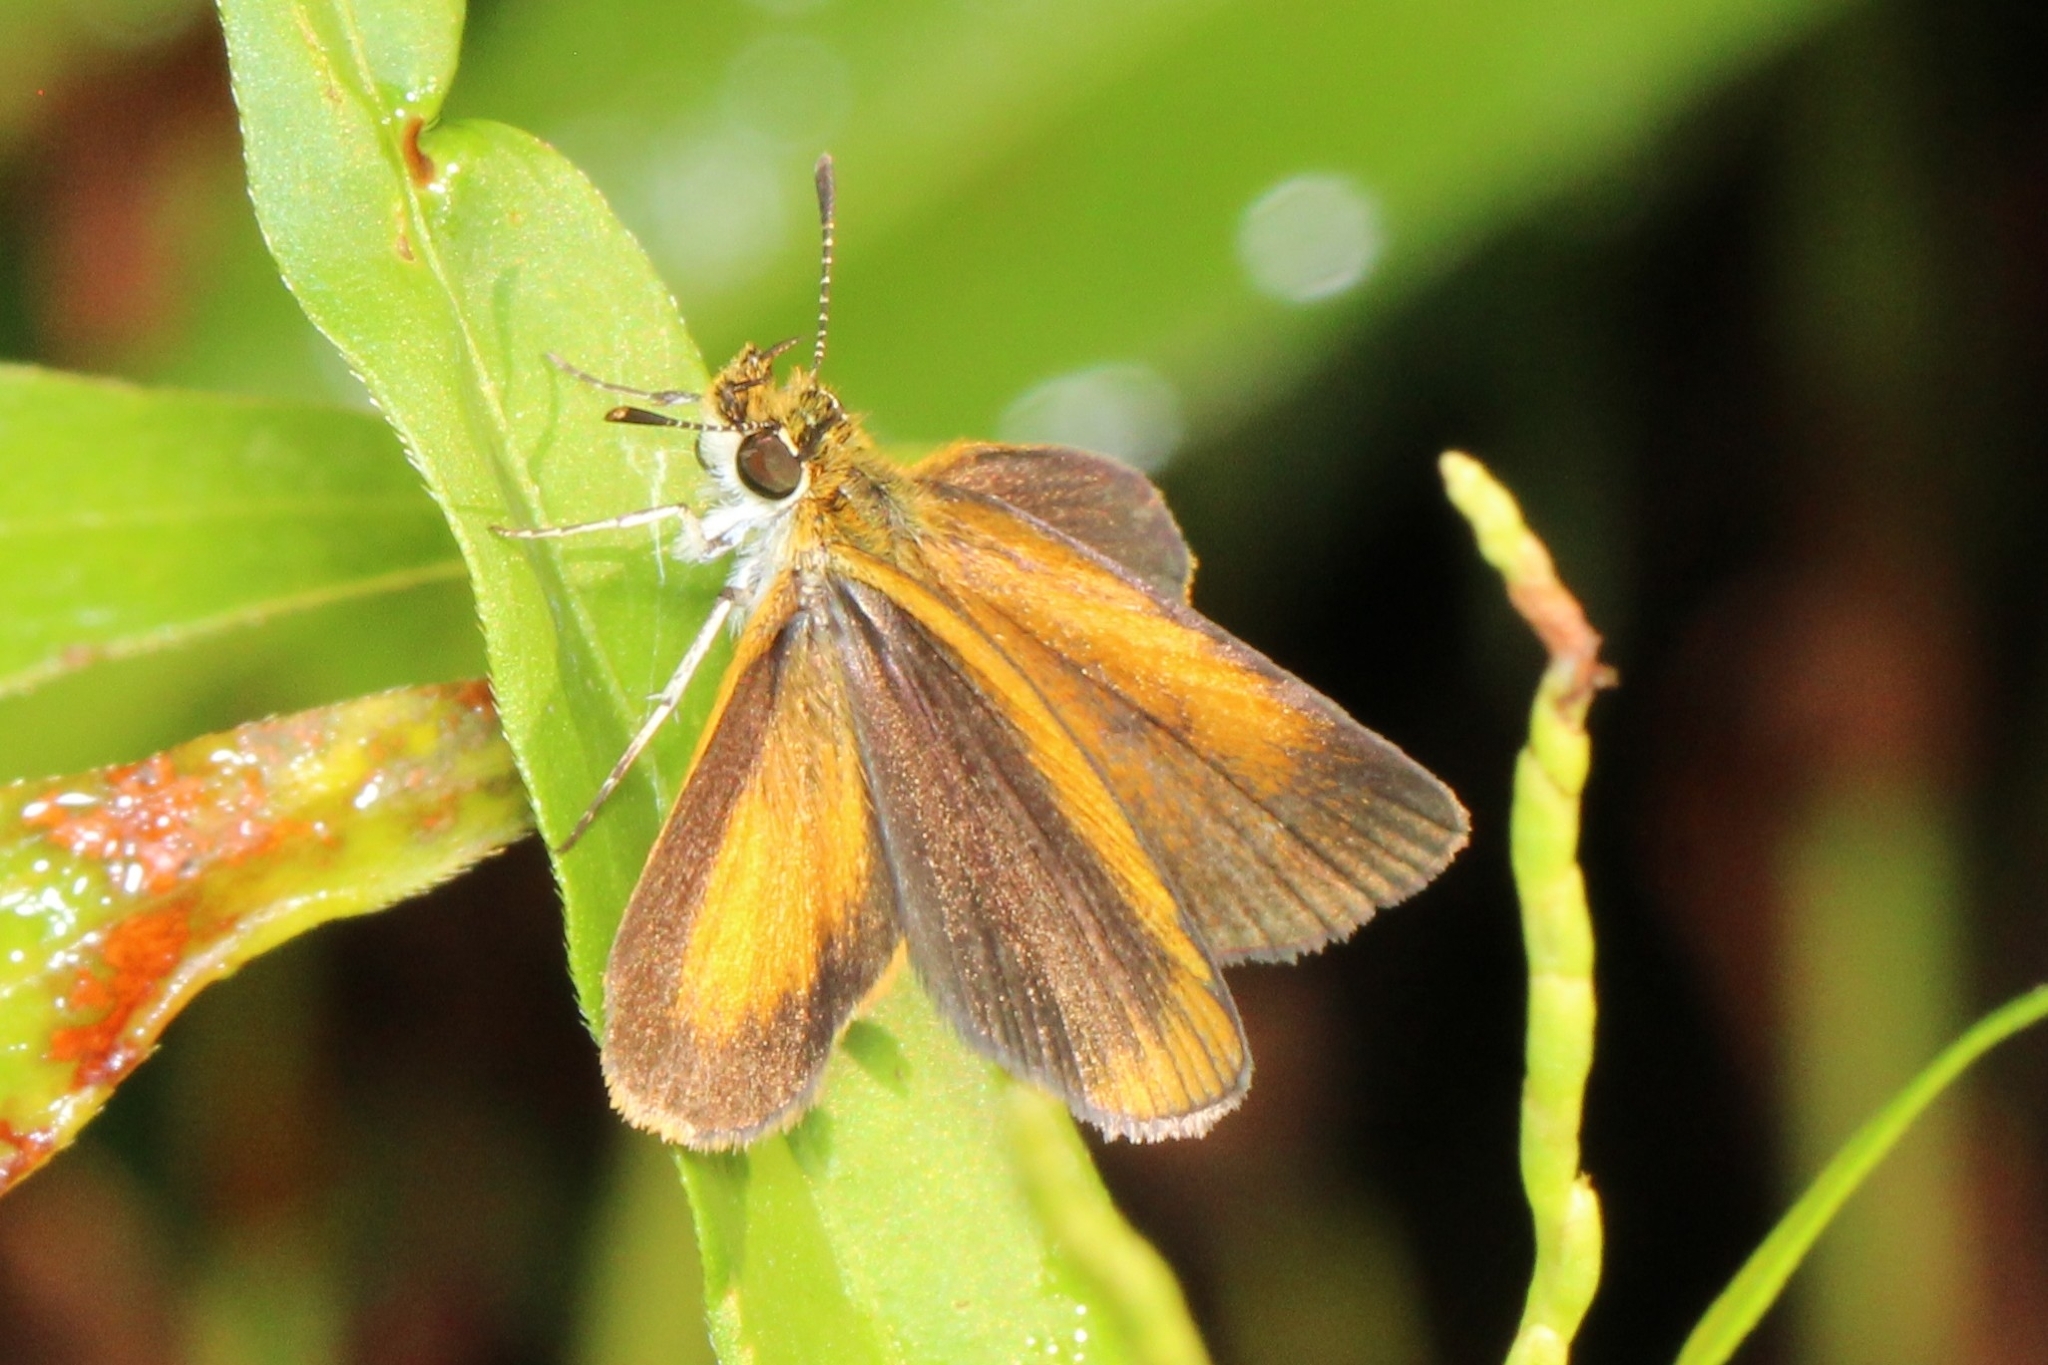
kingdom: Animalia
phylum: Arthropoda
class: Insecta
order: Lepidoptera
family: Hesperiidae
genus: Ancyloxypha
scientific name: Ancyloxypha numitor
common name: Least skipper
